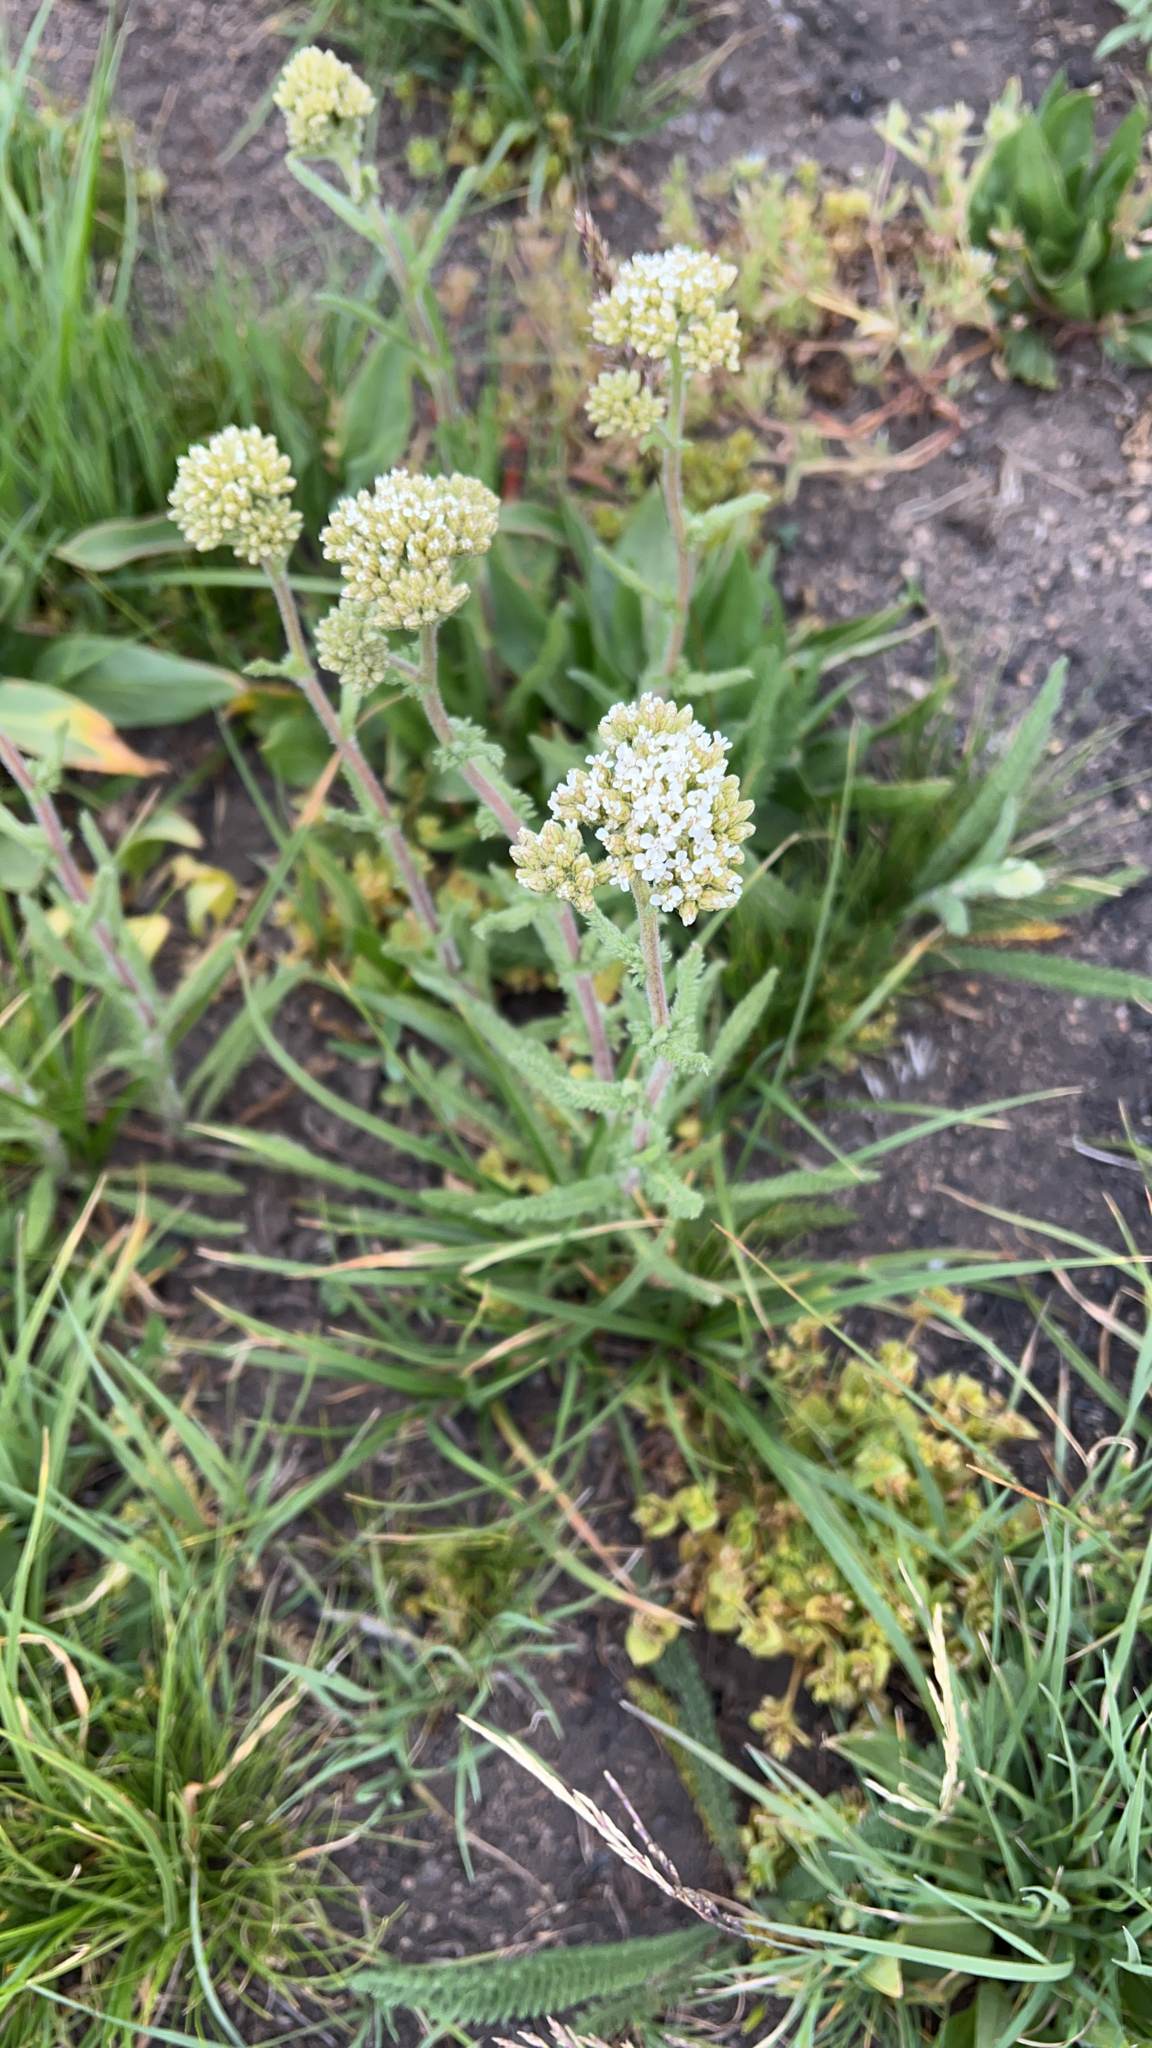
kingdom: Plantae
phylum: Tracheophyta
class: Magnoliopsida
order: Asterales
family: Asteraceae
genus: Achillea
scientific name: Achillea millefolium
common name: Yarrow
